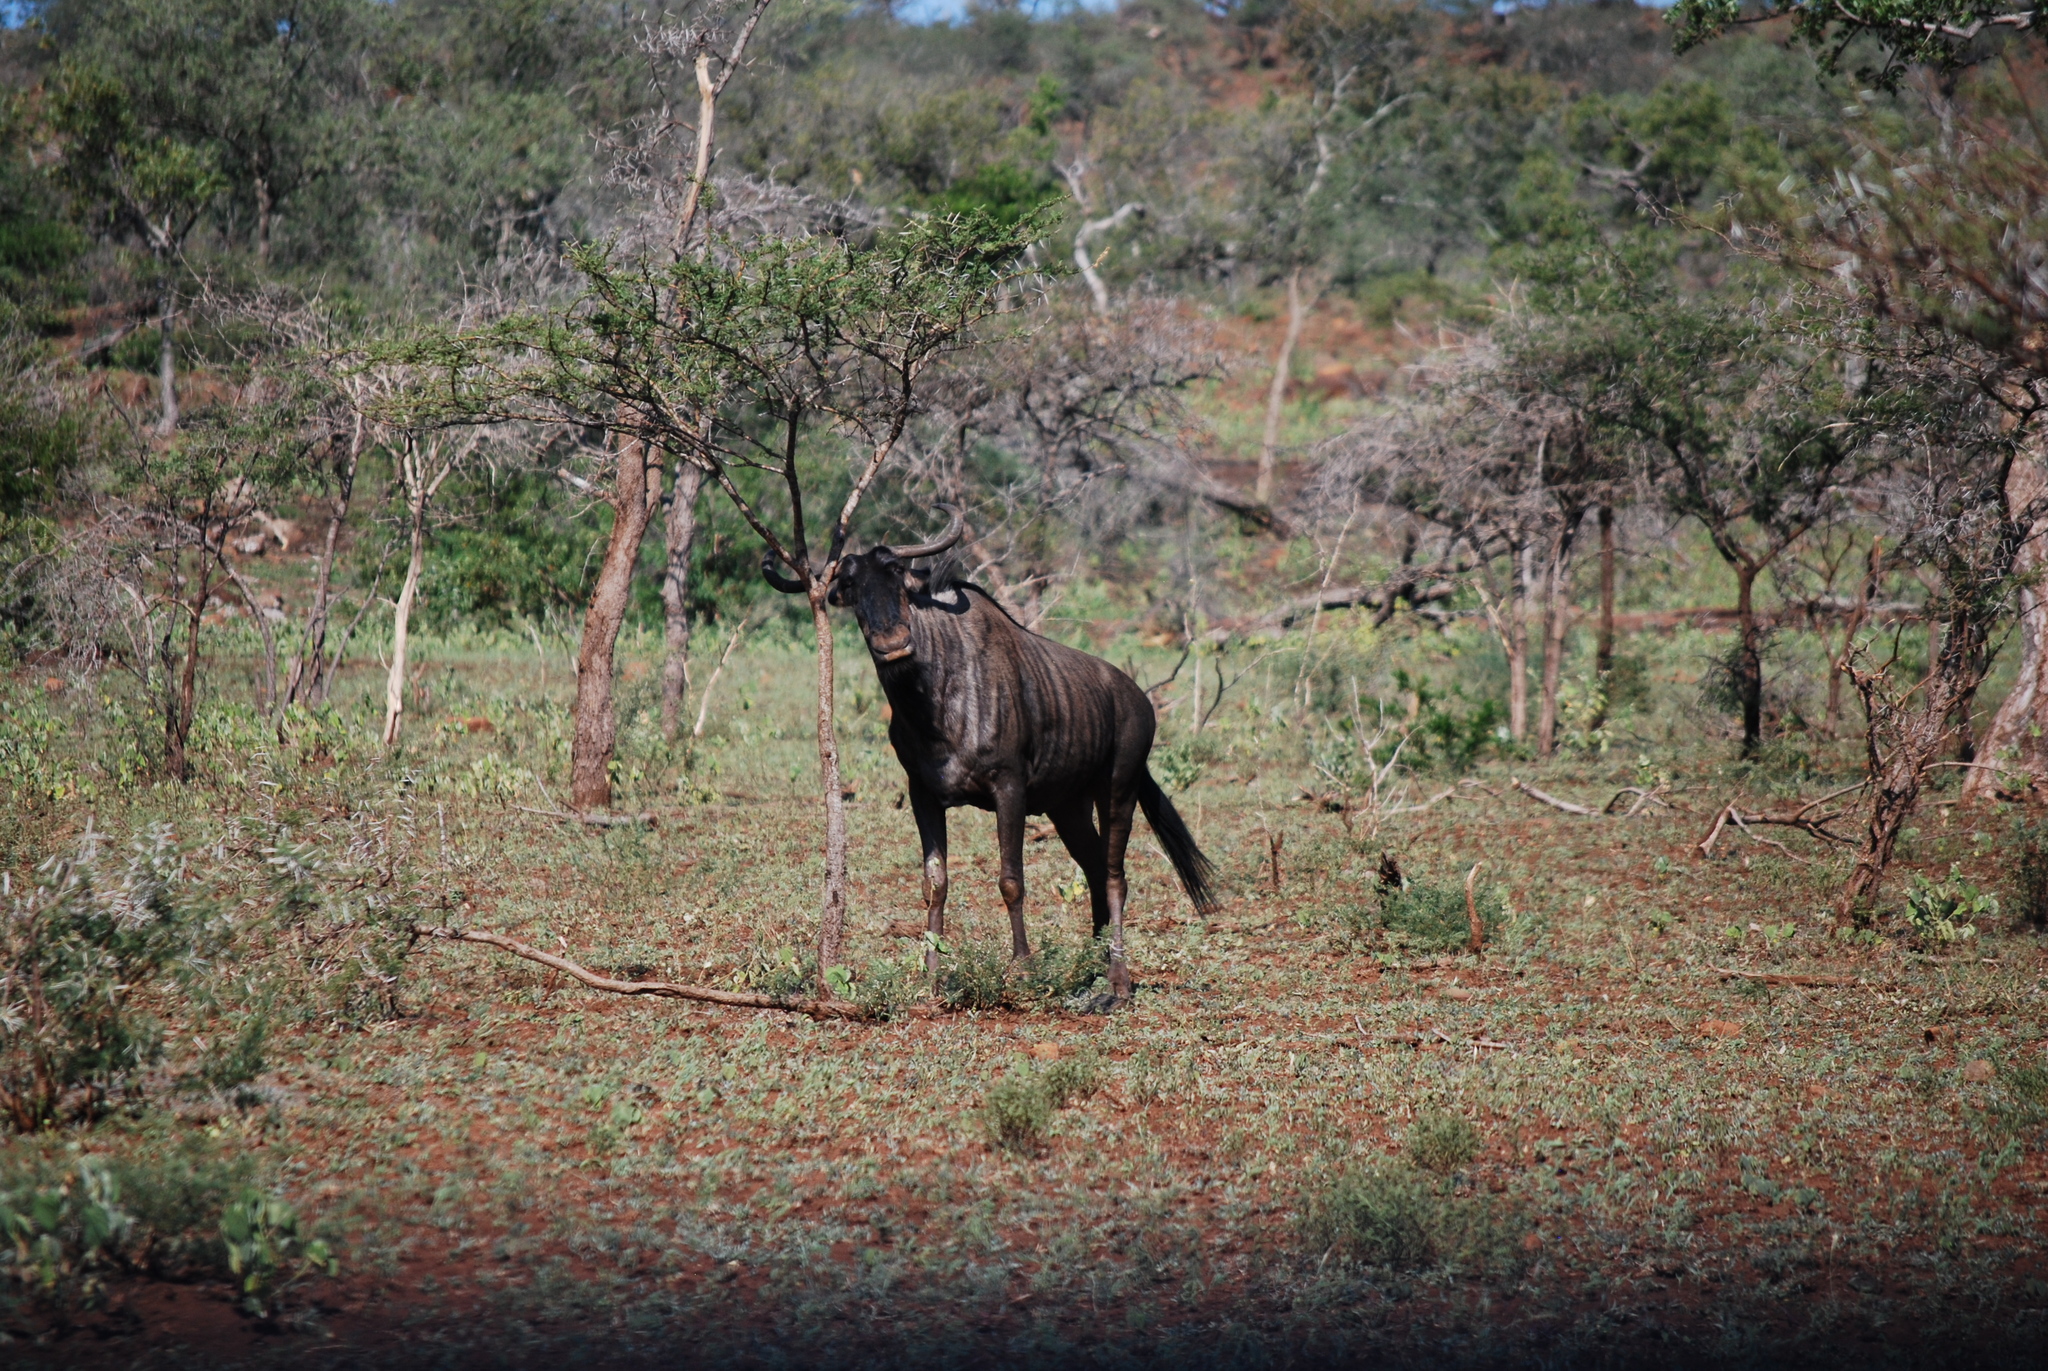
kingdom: Animalia
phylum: Chordata
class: Mammalia
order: Artiodactyla
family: Bovidae
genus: Connochaetes
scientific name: Connochaetes taurinus
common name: Blue wildebeest
